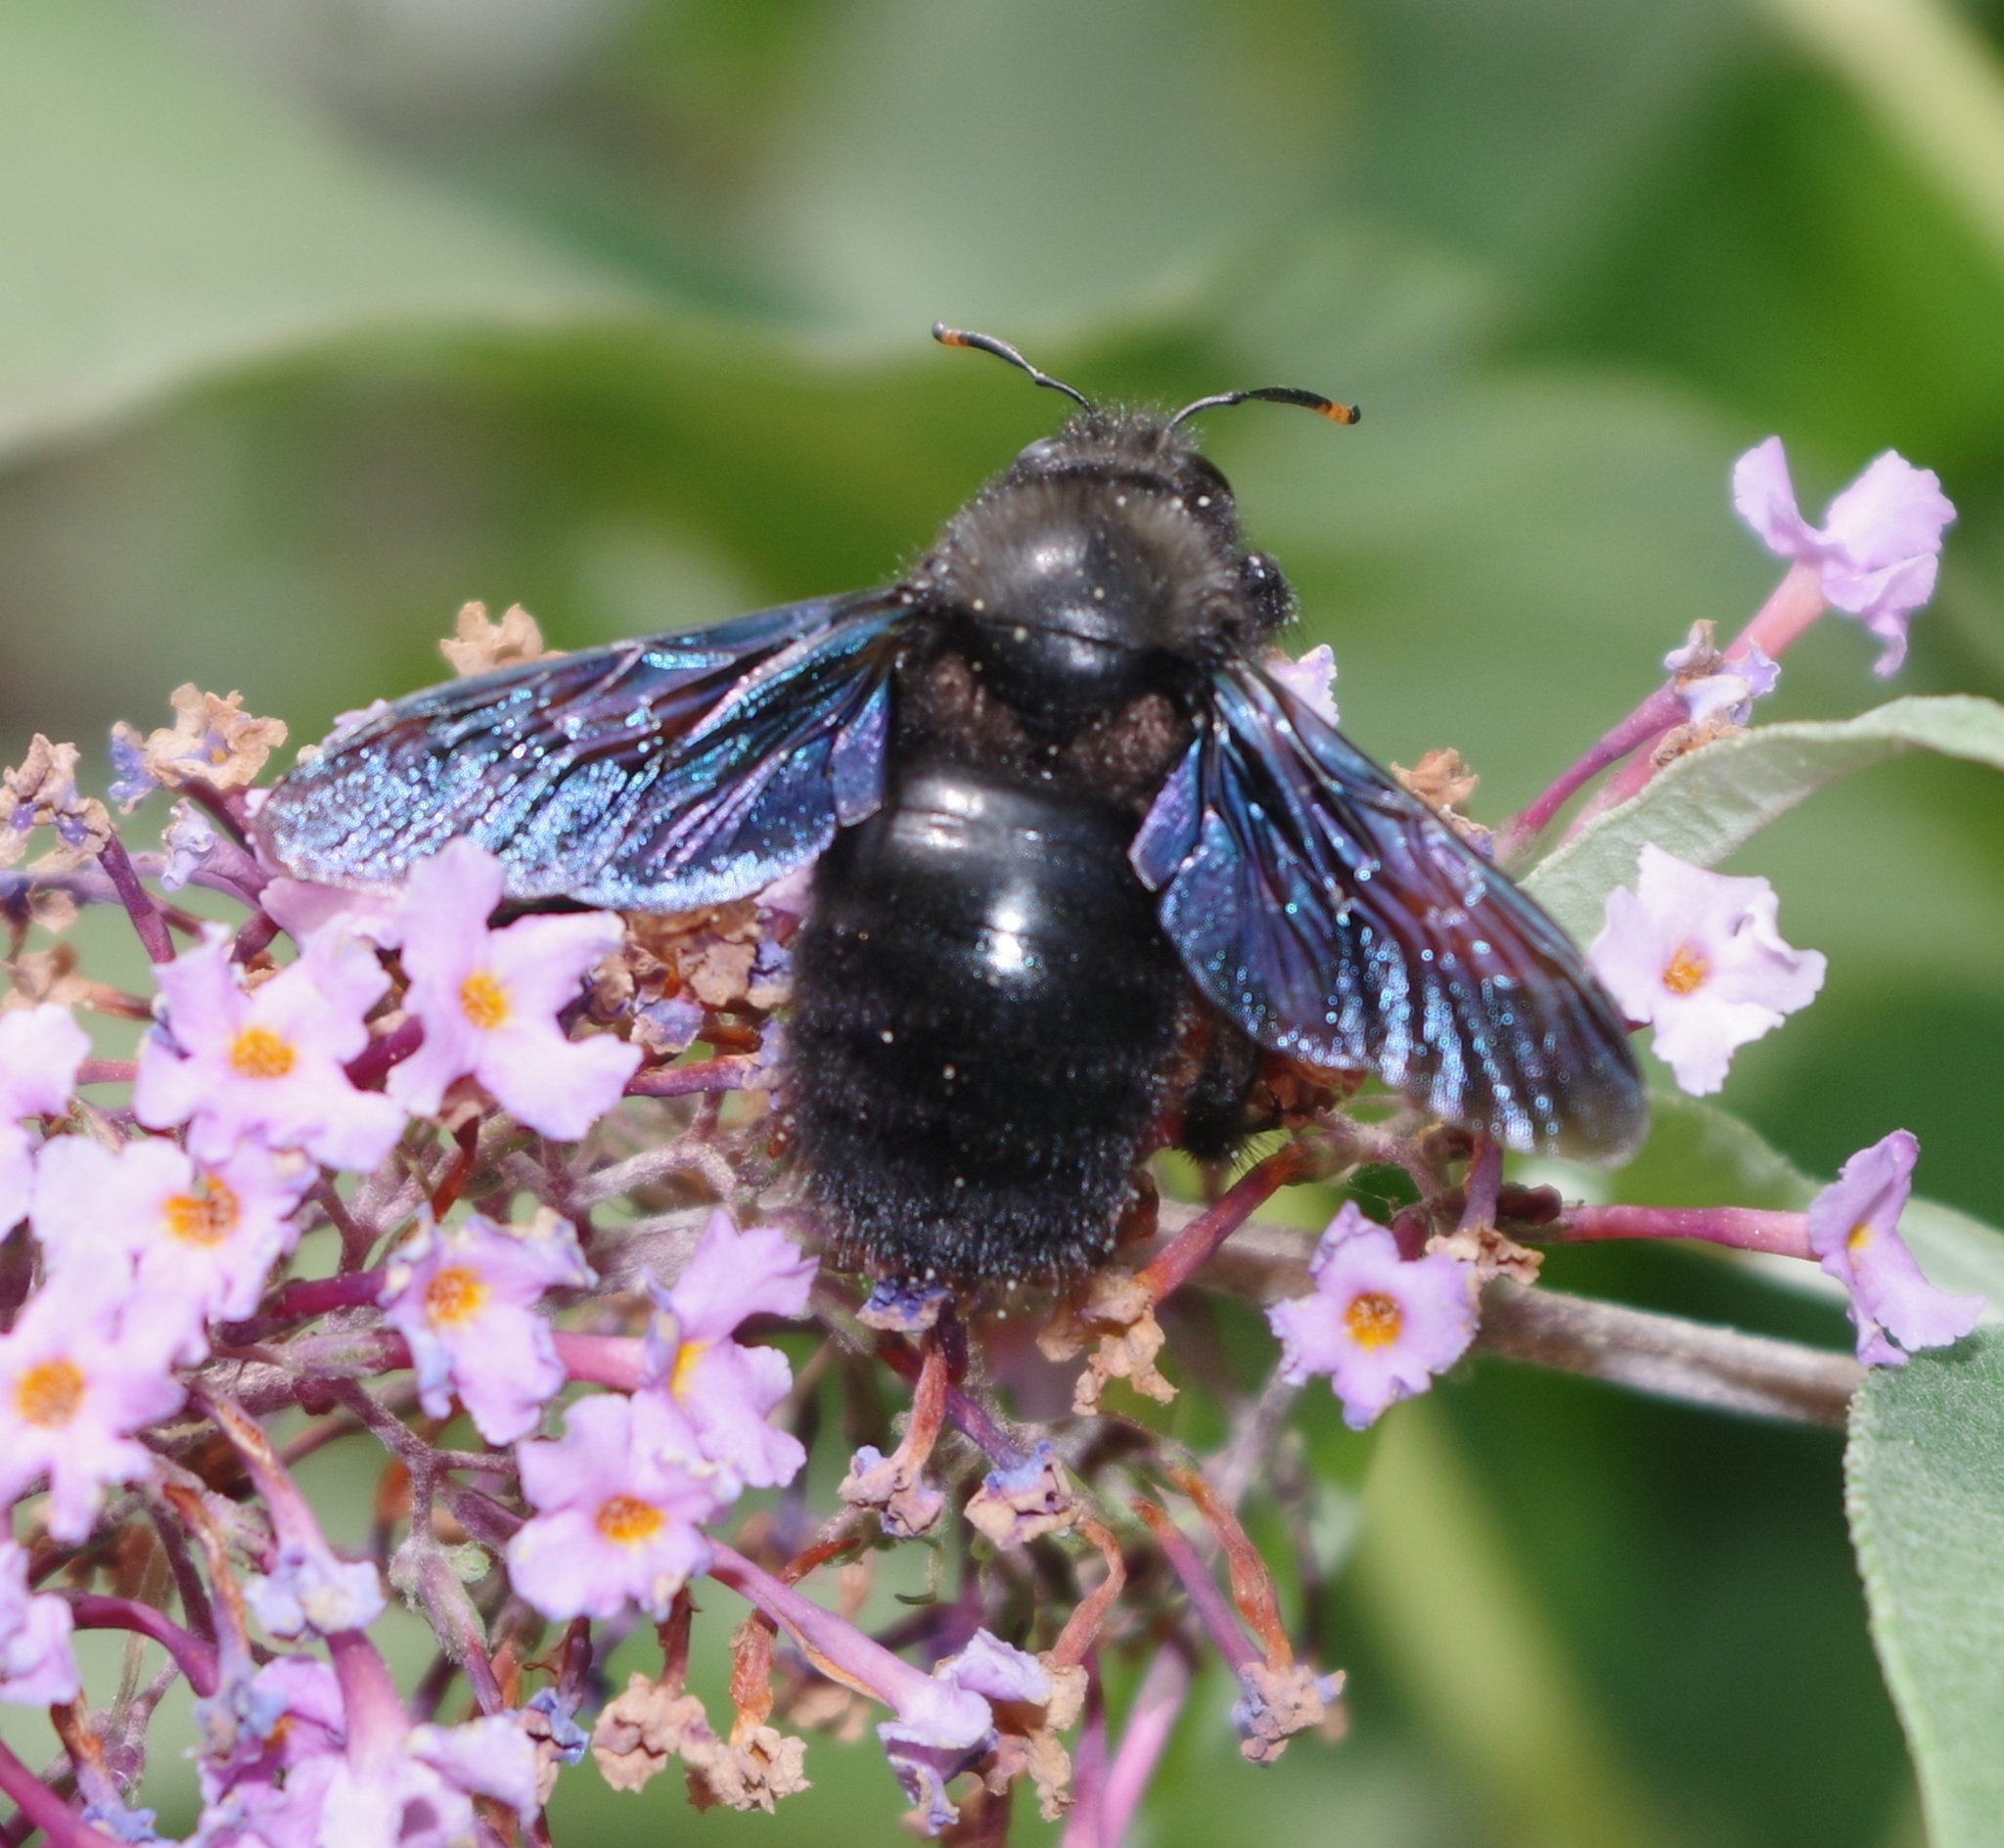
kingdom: Animalia
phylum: Arthropoda
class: Insecta
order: Hymenoptera
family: Apidae
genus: Xylocopa
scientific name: Xylocopa violacea
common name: Violet carpenter bee
